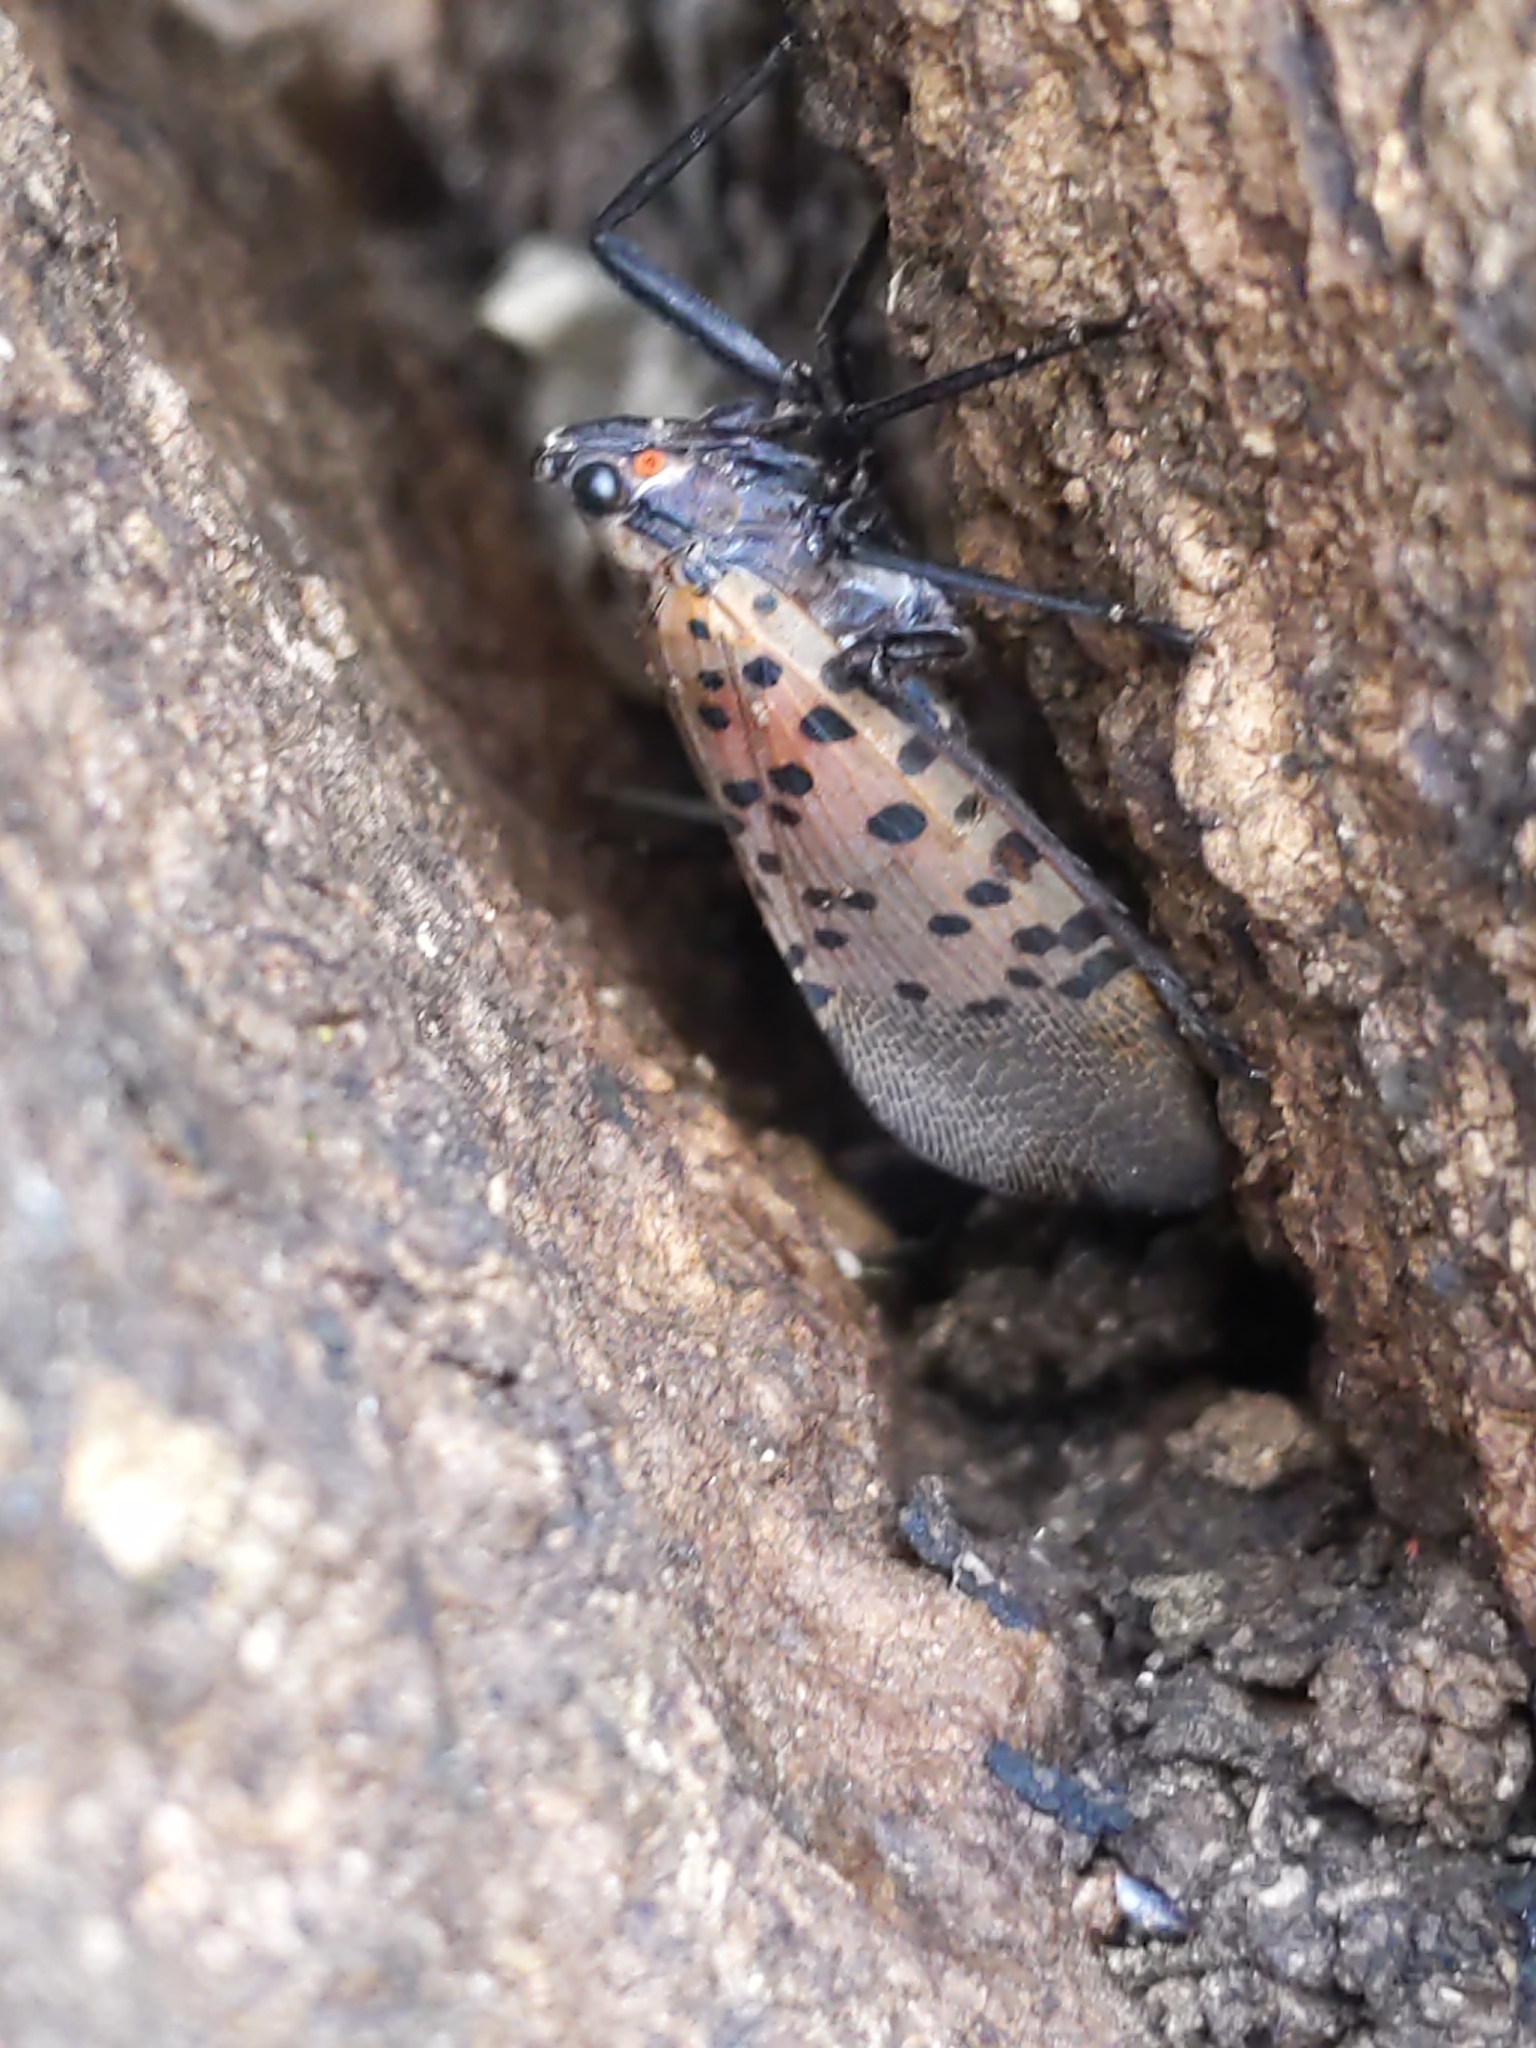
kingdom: Animalia
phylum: Arthropoda
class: Insecta
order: Hemiptera
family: Fulgoridae
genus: Lycorma
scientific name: Lycorma delicatula
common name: Spotted lanternfly
